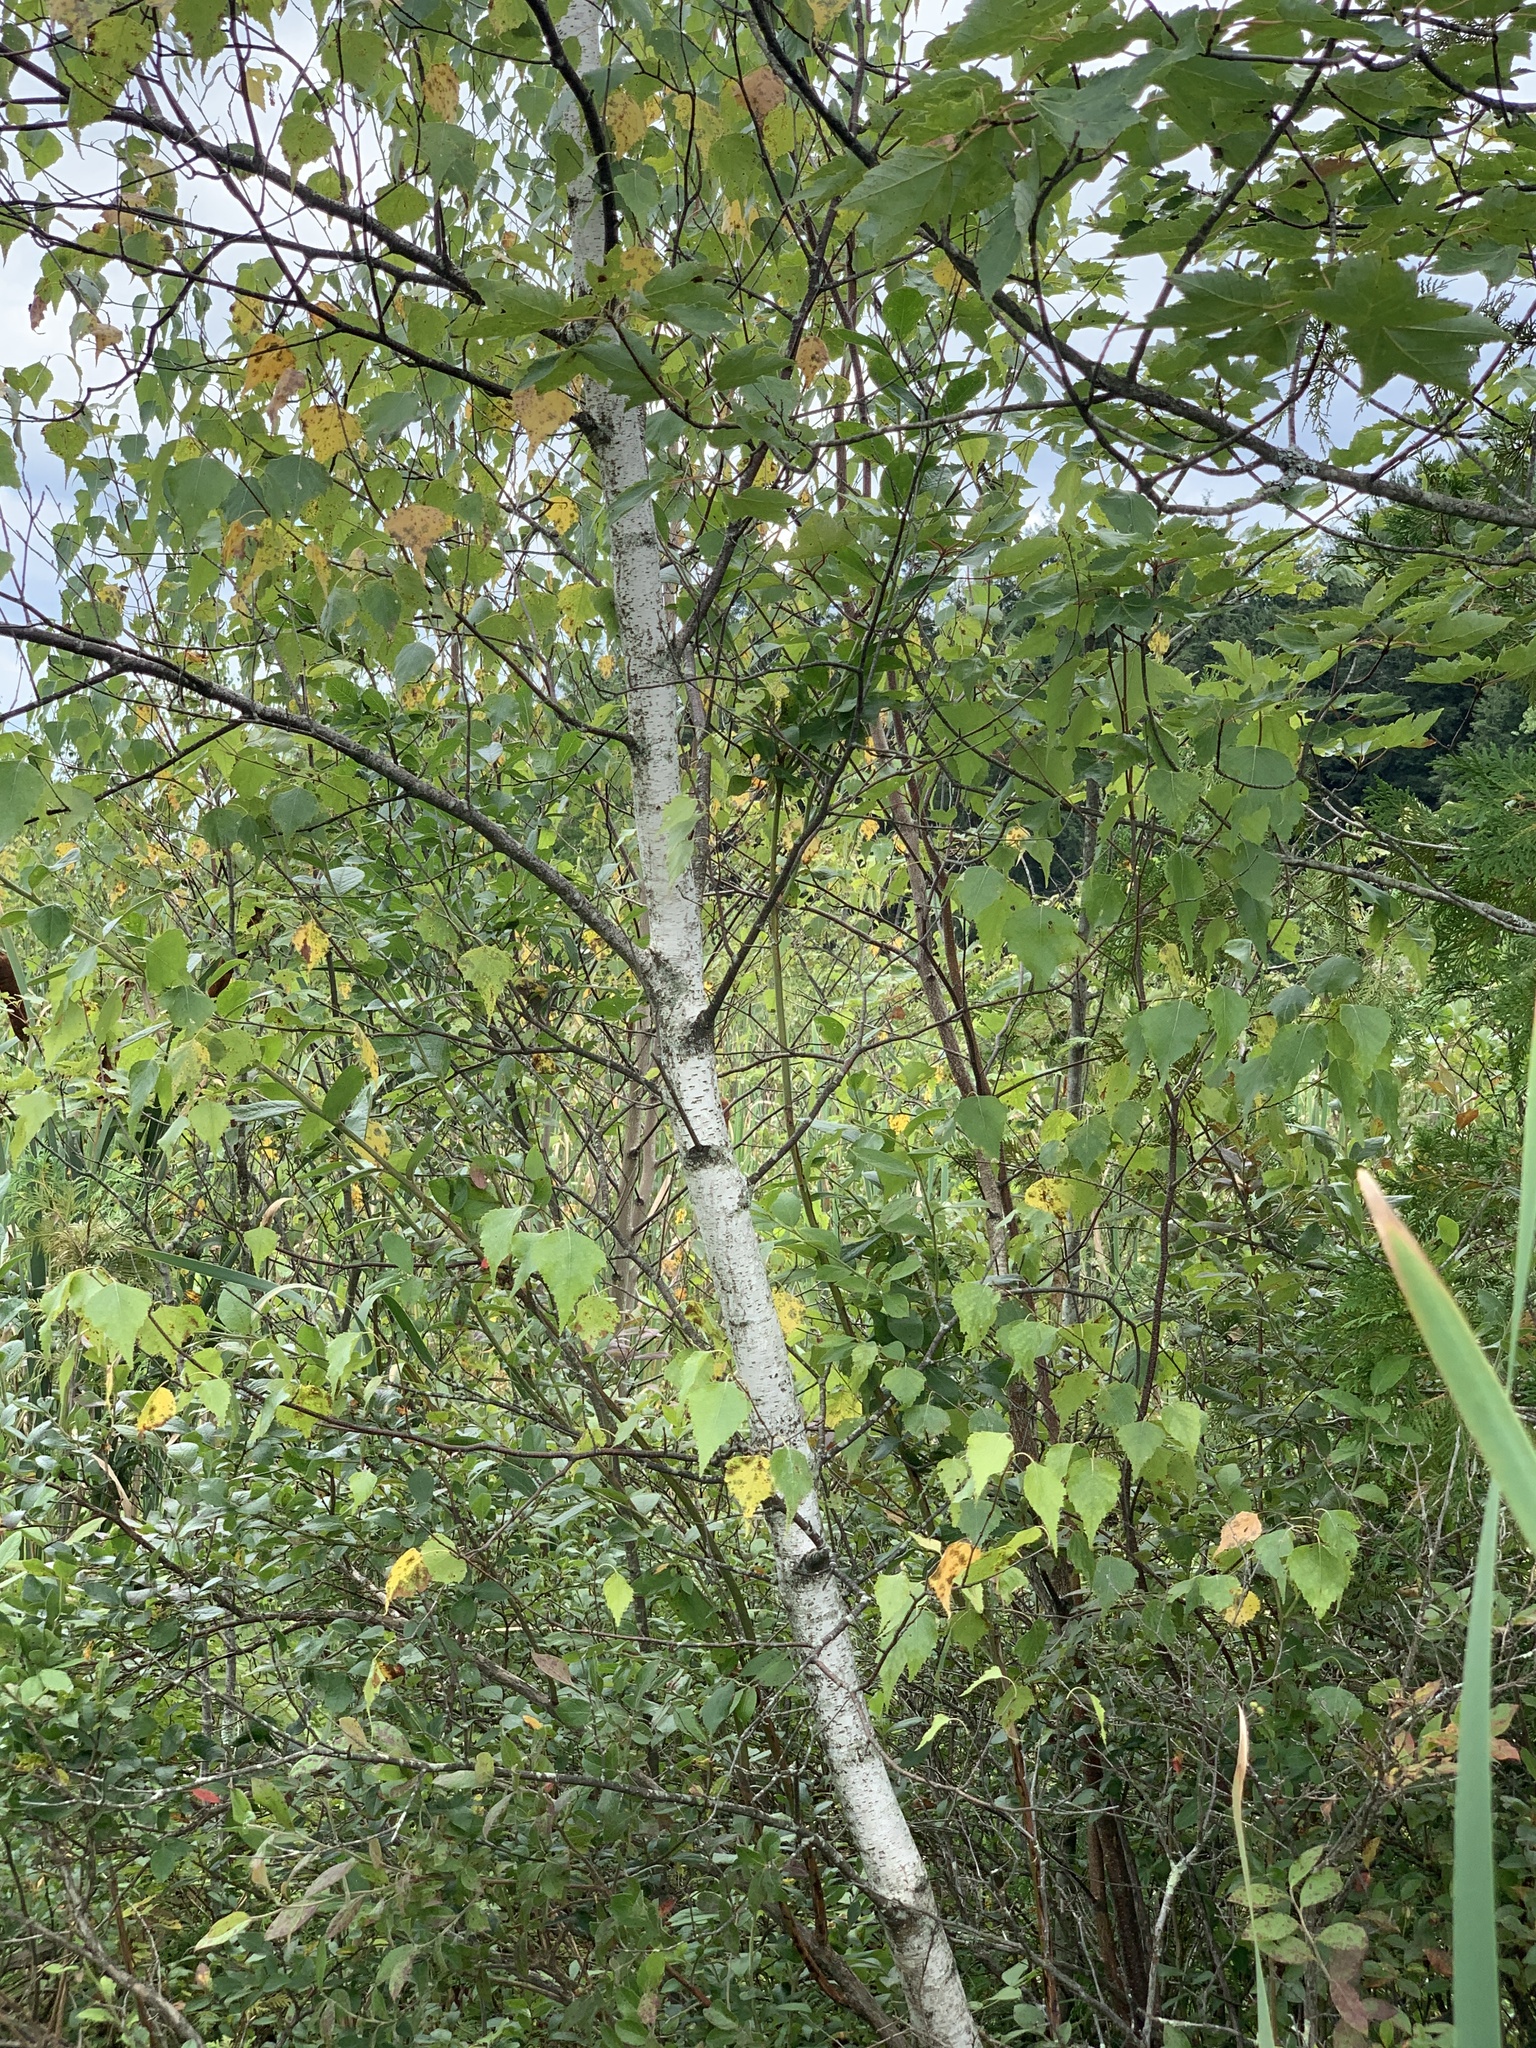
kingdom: Plantae
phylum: Tracheophyta
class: Magnoliopsida
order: Fagales
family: Betulaceae
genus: Betula
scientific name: Betula populifolia
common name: Fire birch
